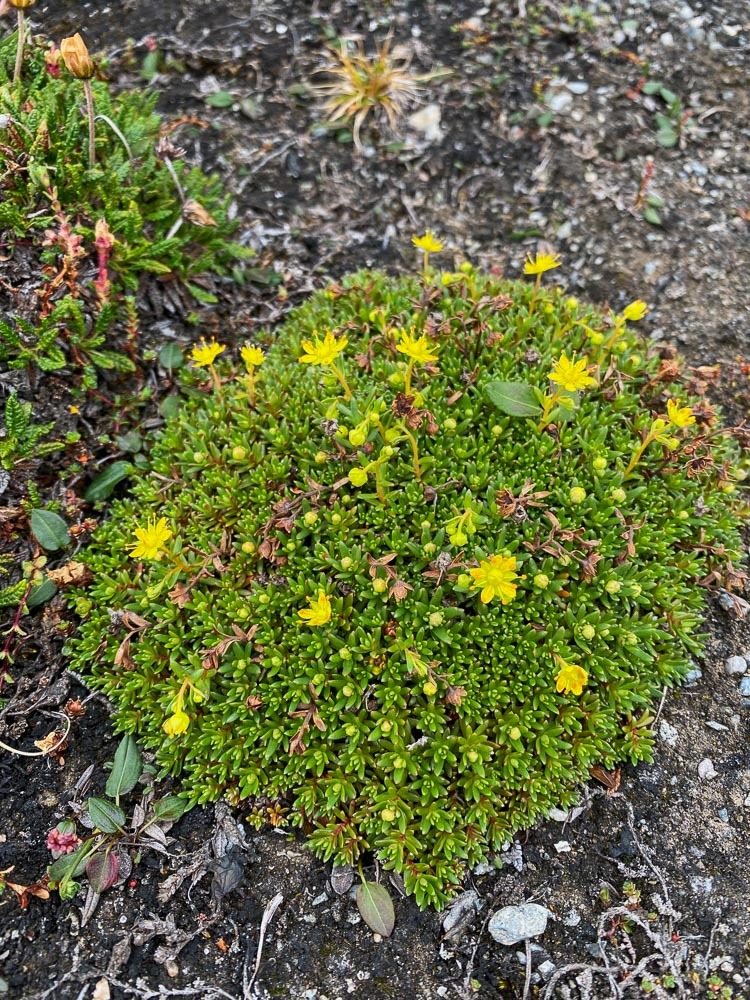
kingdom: Plantae
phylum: Tracheophyta
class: Magnoliopsida
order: Saxifragales
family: Saxifragaceae
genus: Saxifraga
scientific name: Saxifraga aizoides
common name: Yellow mountain saxifrage
